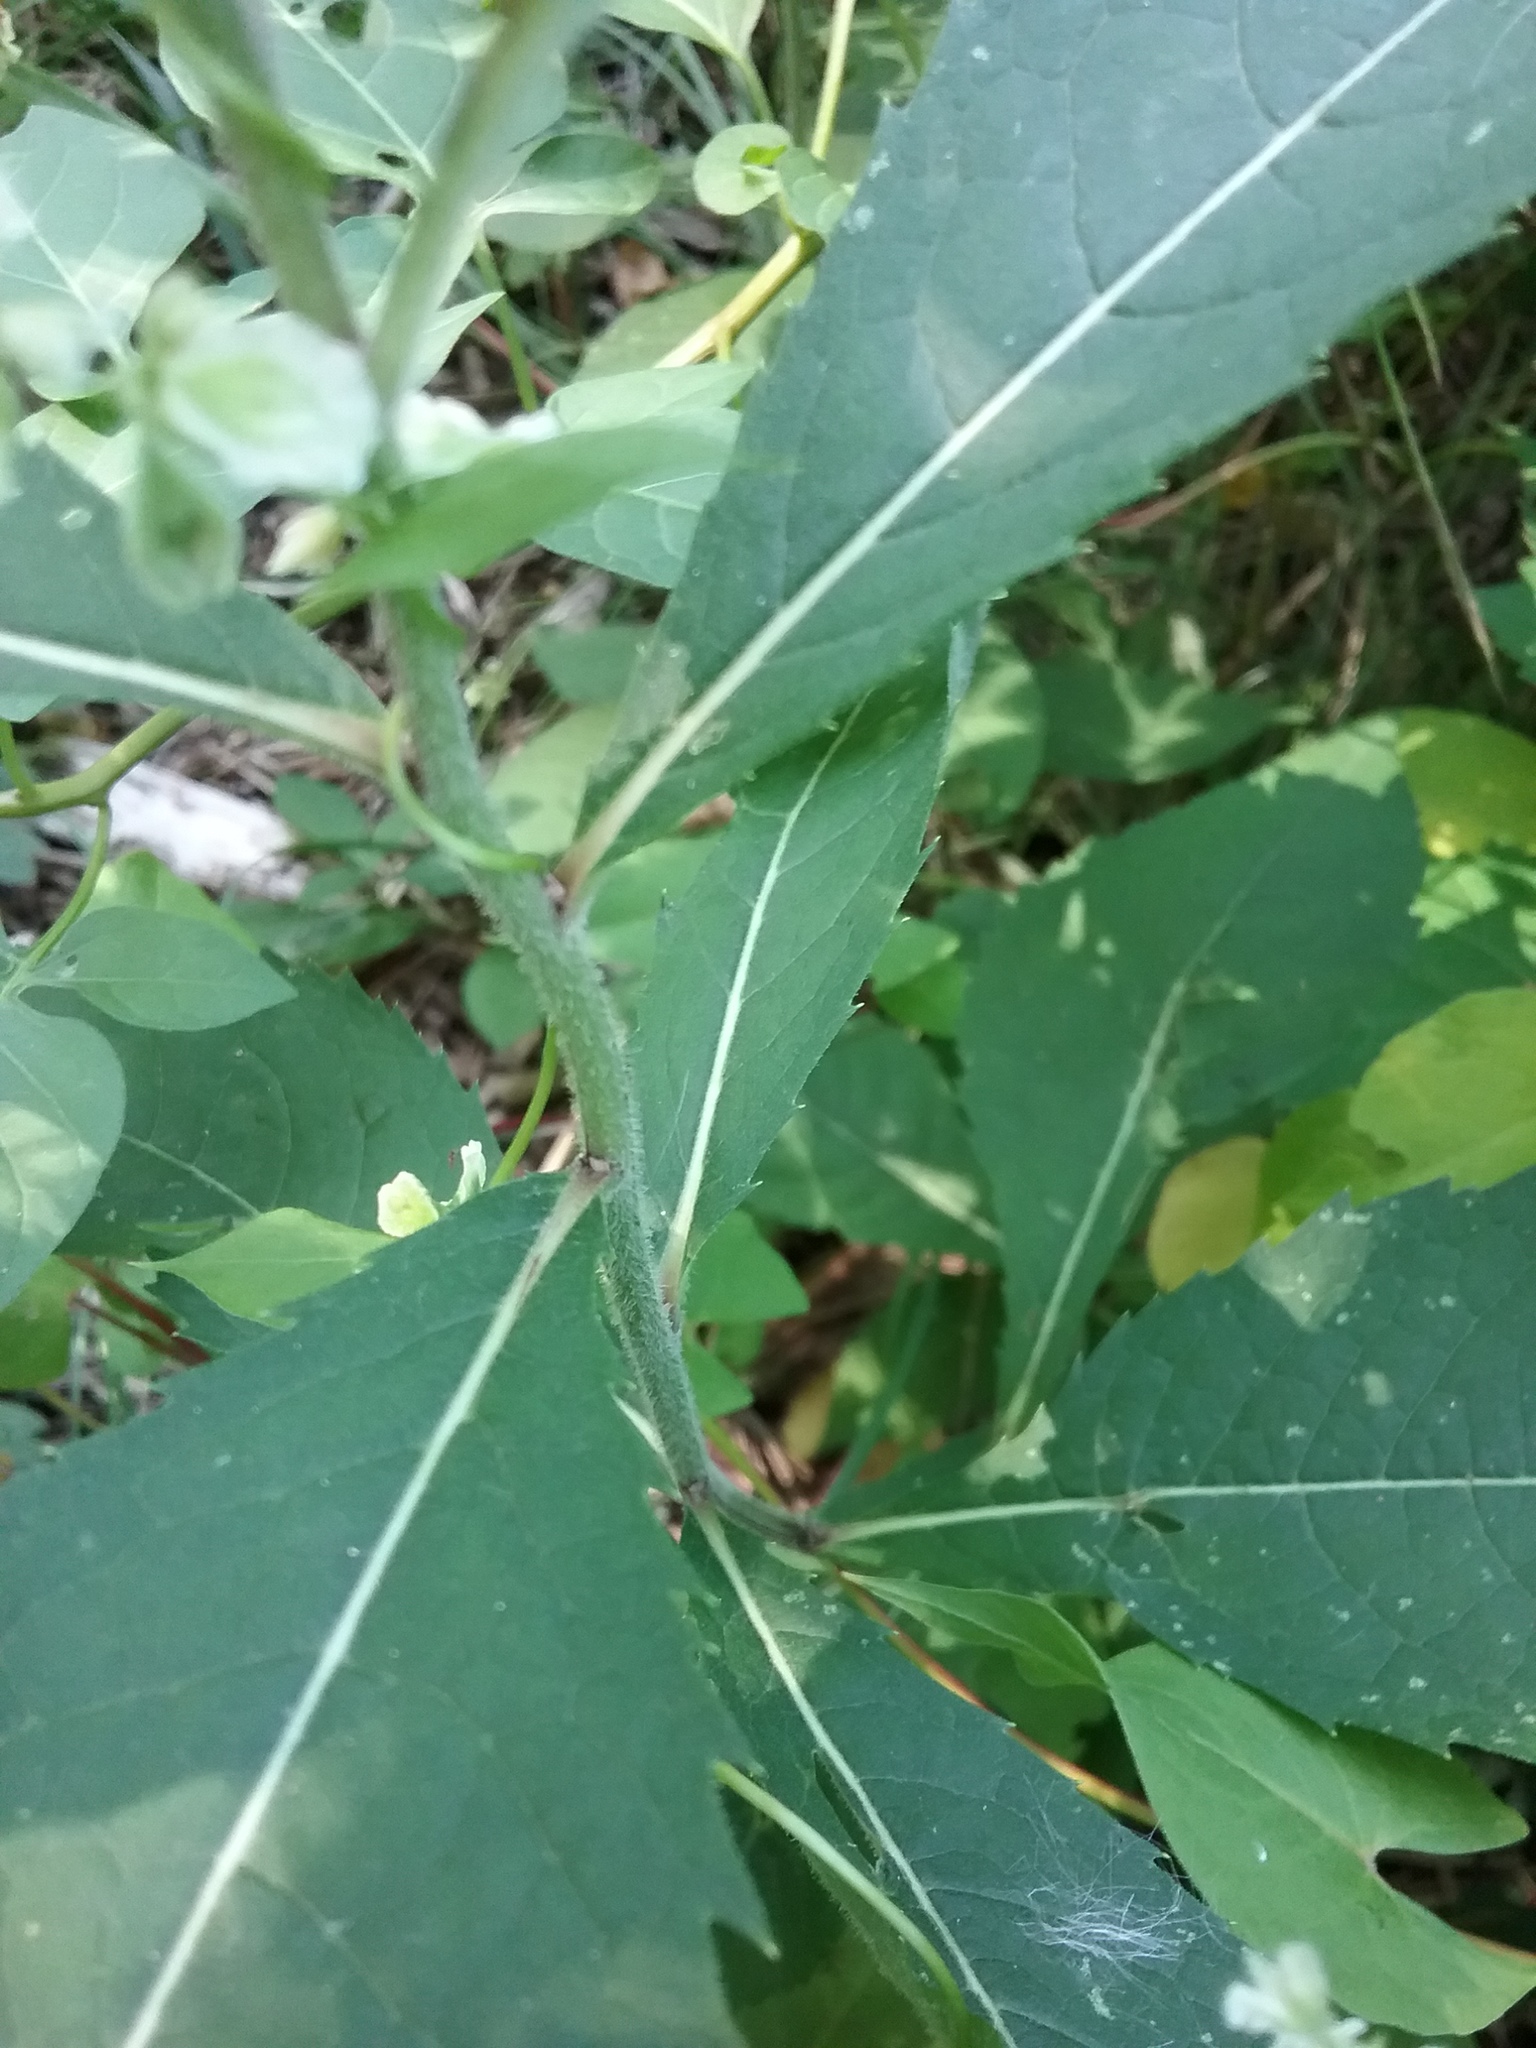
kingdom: Plantae
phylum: Tracheophyta
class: Magnoliopsida
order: Asterales
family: Asteraceae
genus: Vernonia
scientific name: Vernonia missurica
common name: Missouri ironweed
